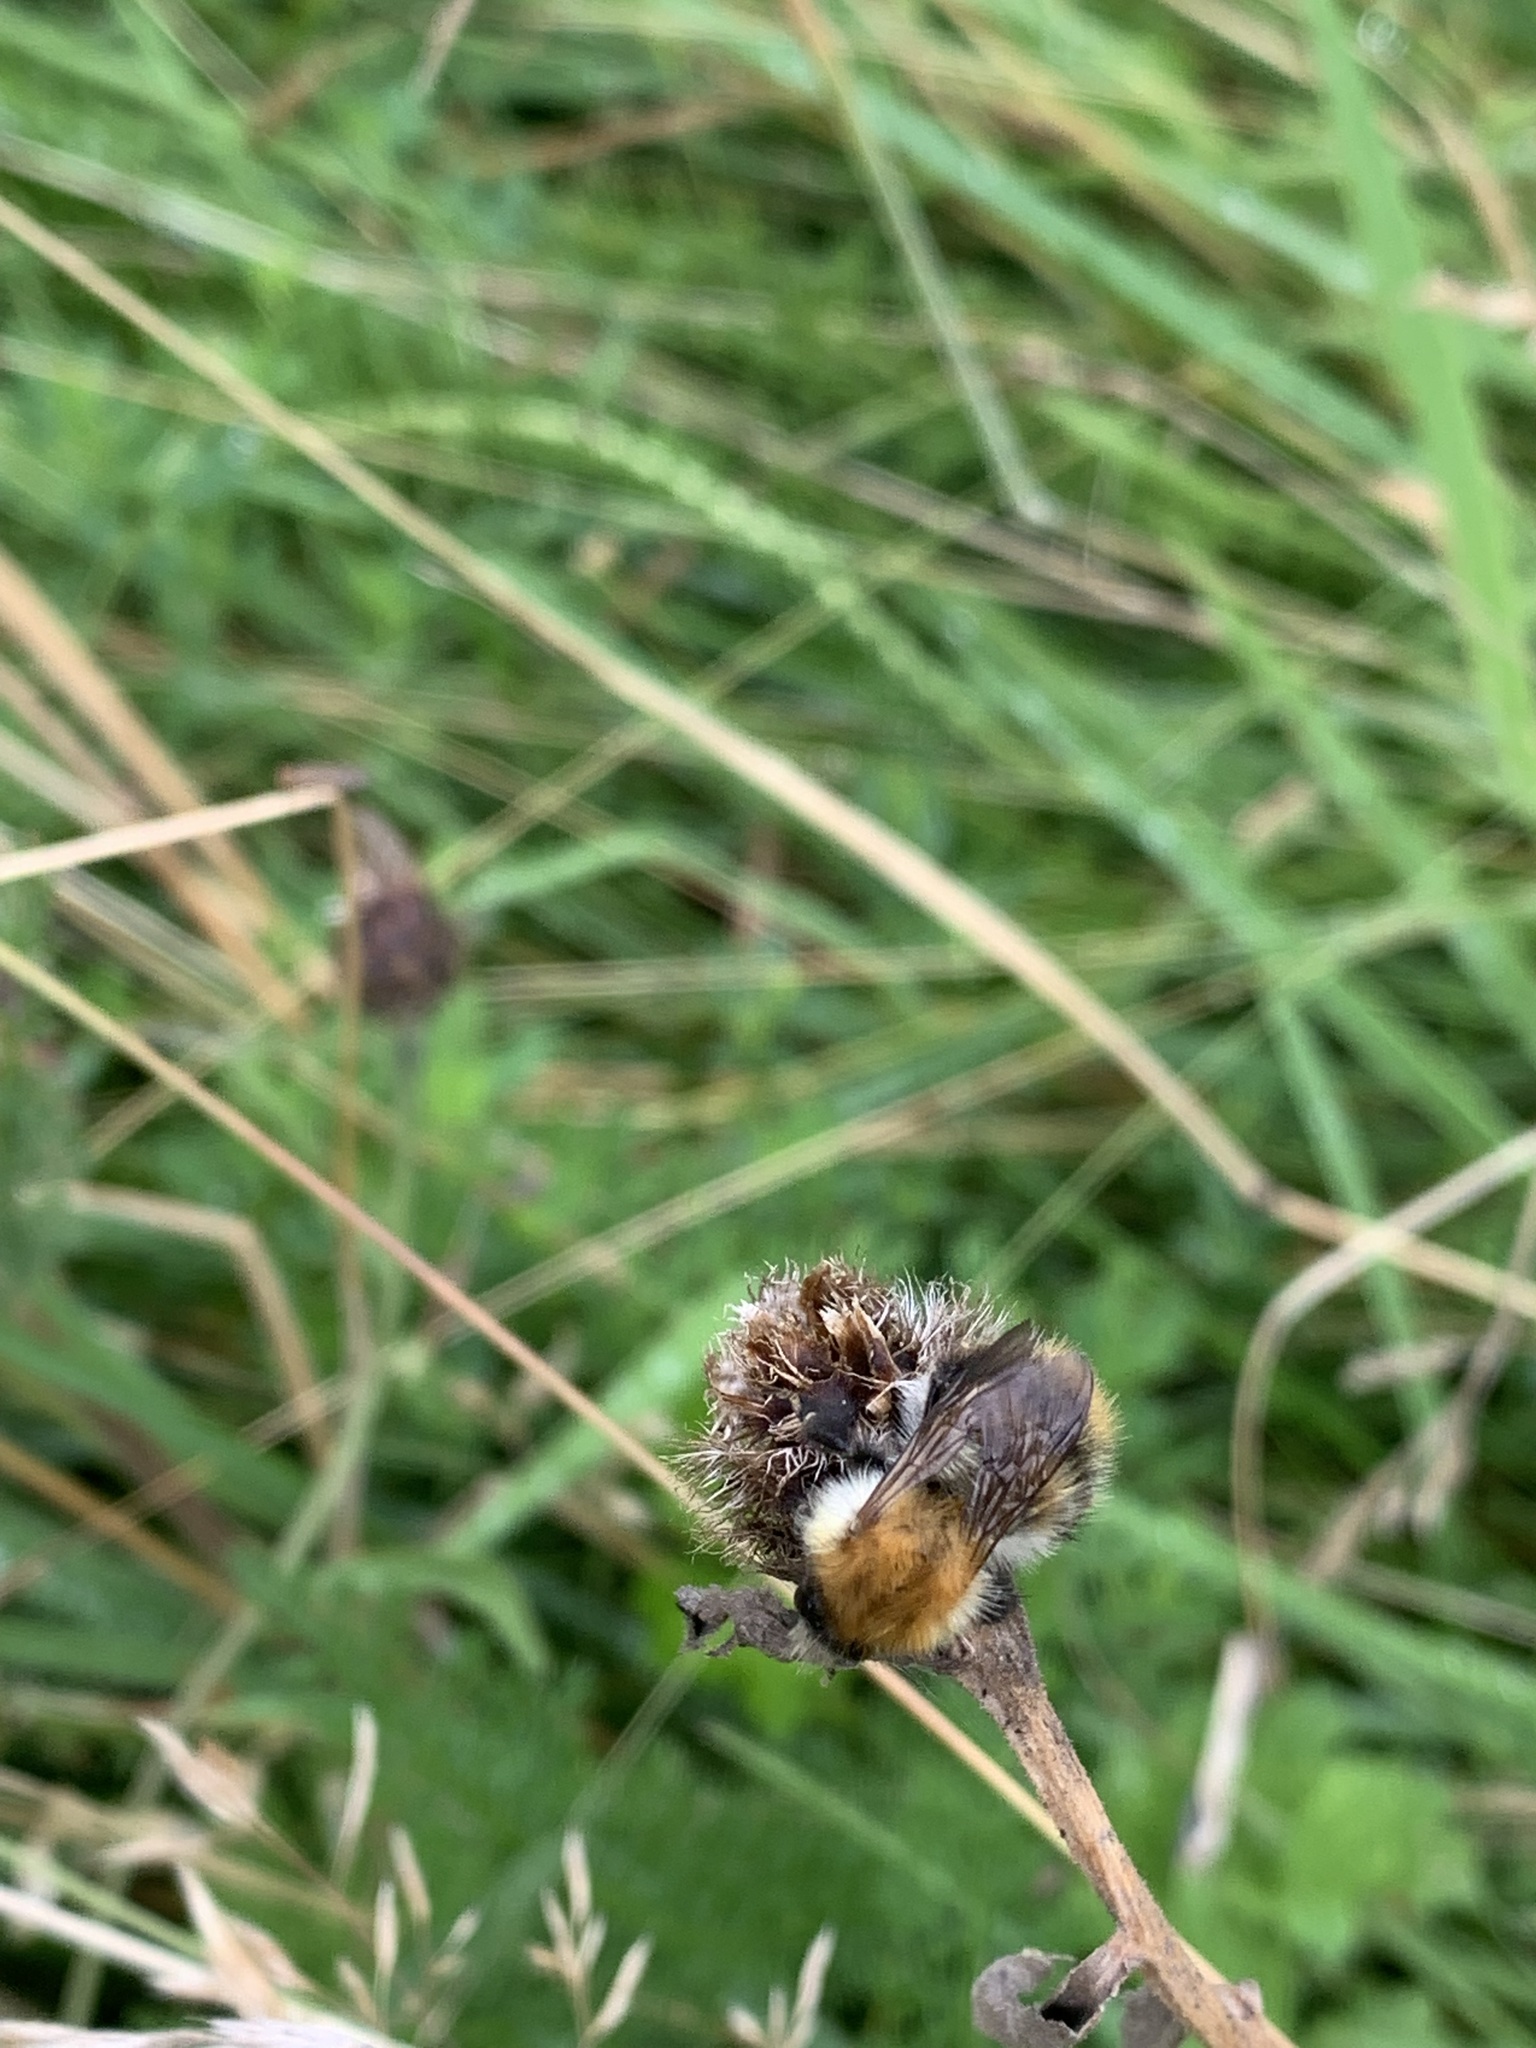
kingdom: Animalia
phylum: Arthropoda
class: Insecta
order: Hymenoptera
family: Apidae
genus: Bombus
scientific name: Bombus pascuorum
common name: Common carder bee
